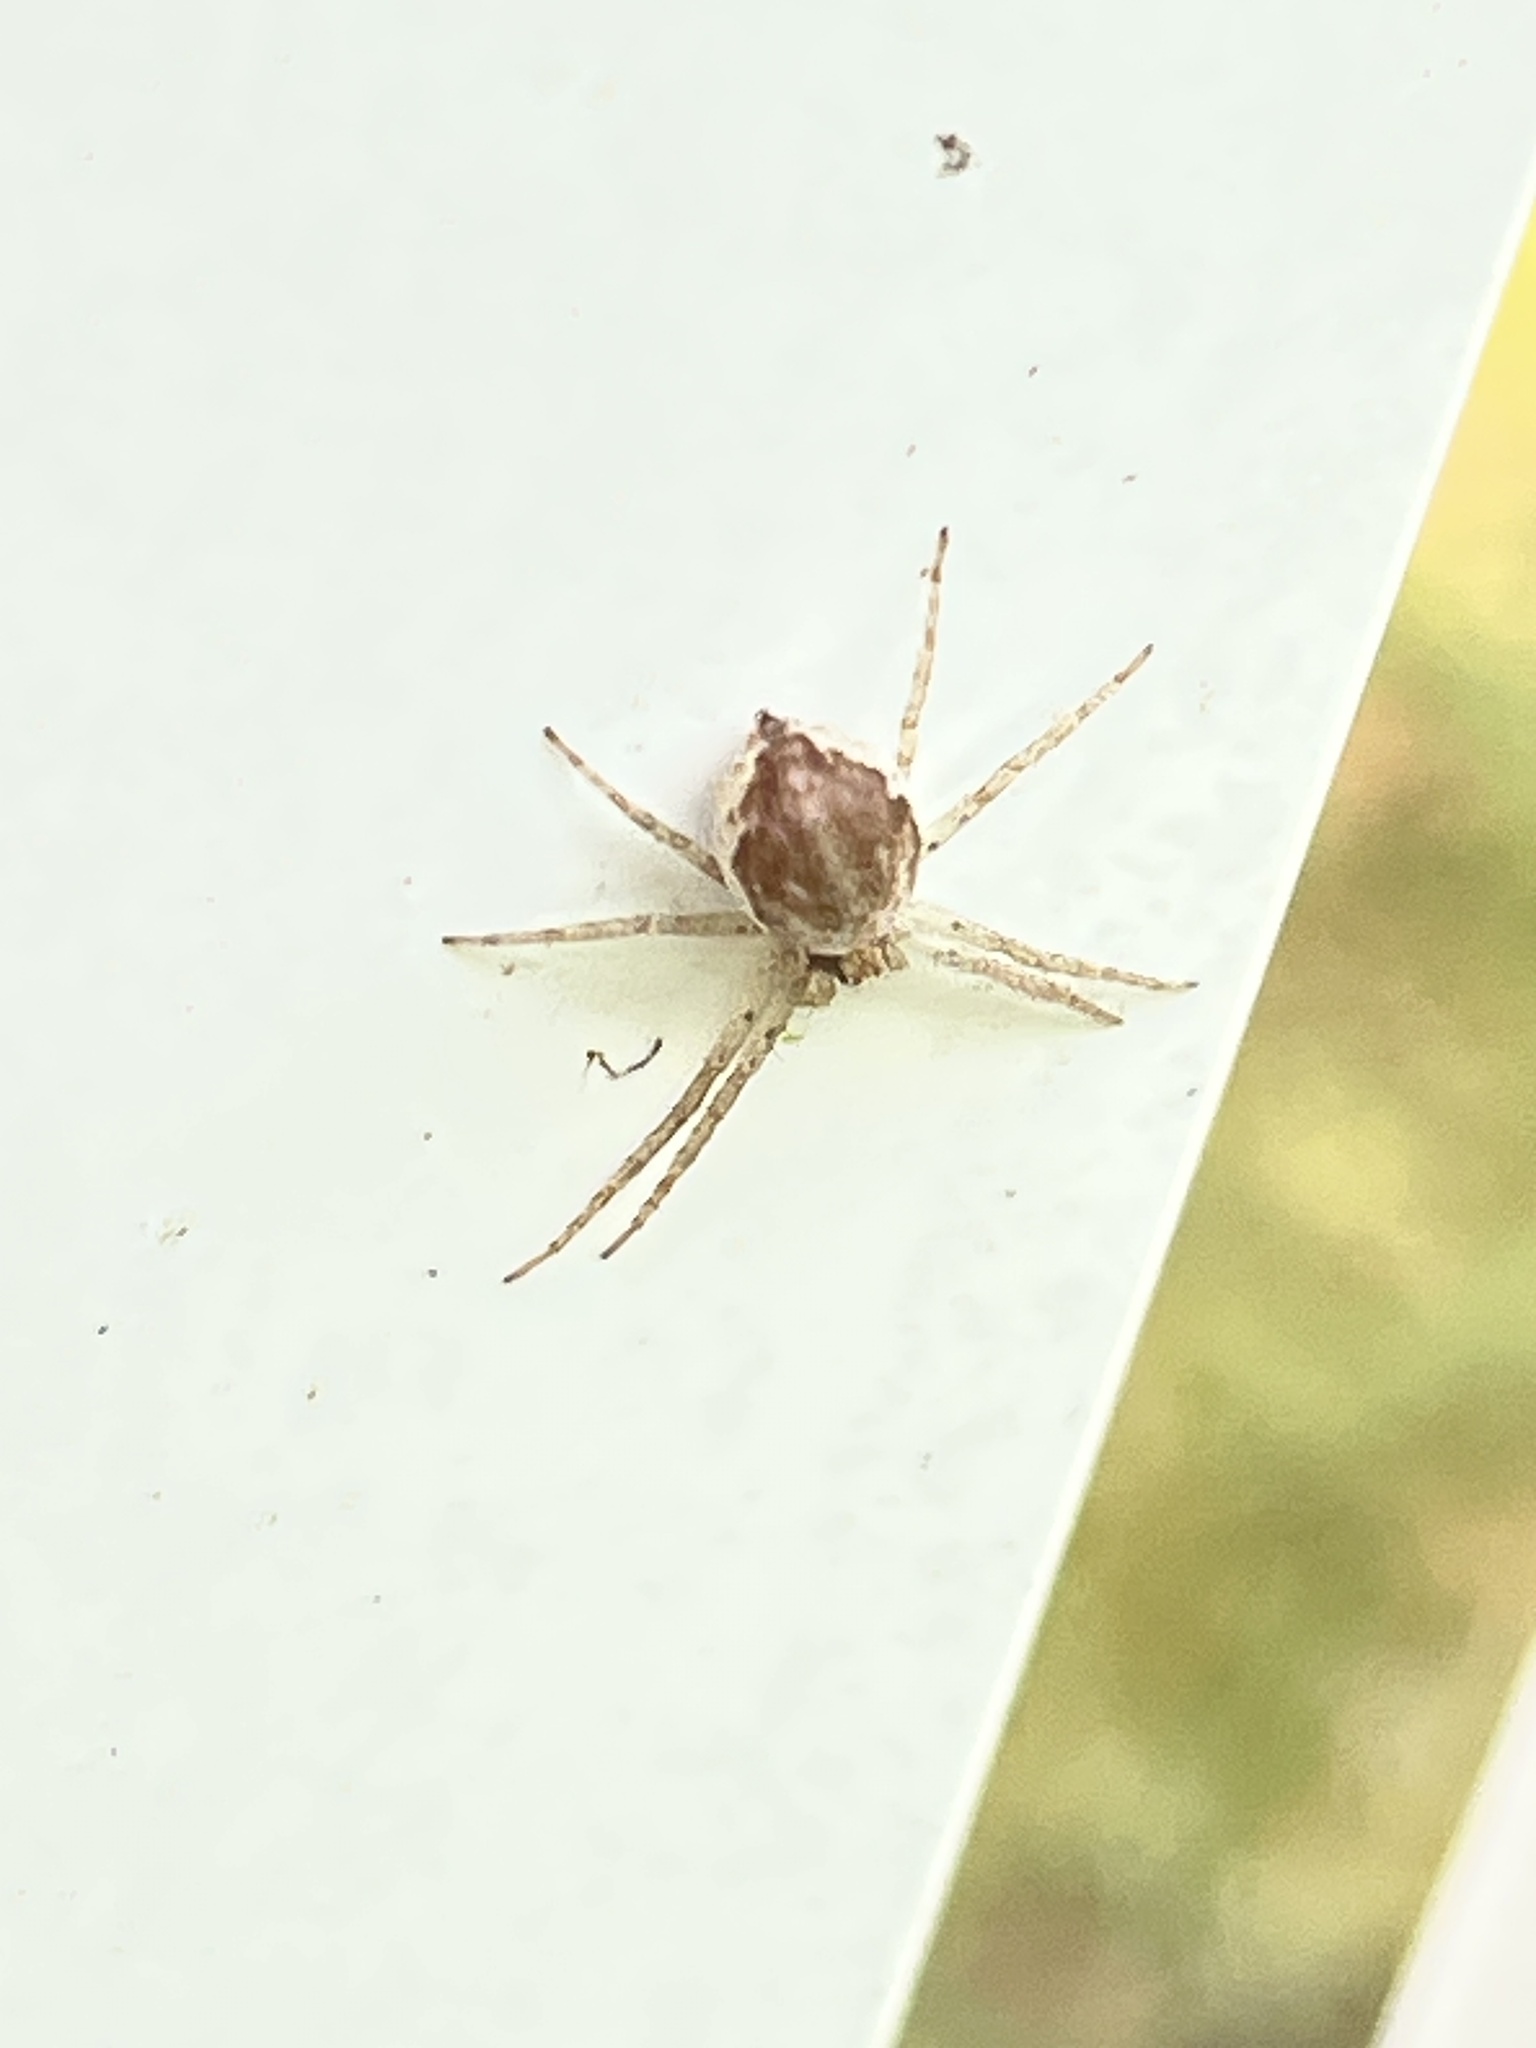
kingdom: Animalia
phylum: Arthropoda
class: Arachnida
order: Araneae
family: Philodromidae
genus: Philodromus
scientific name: Philodromus dispar
